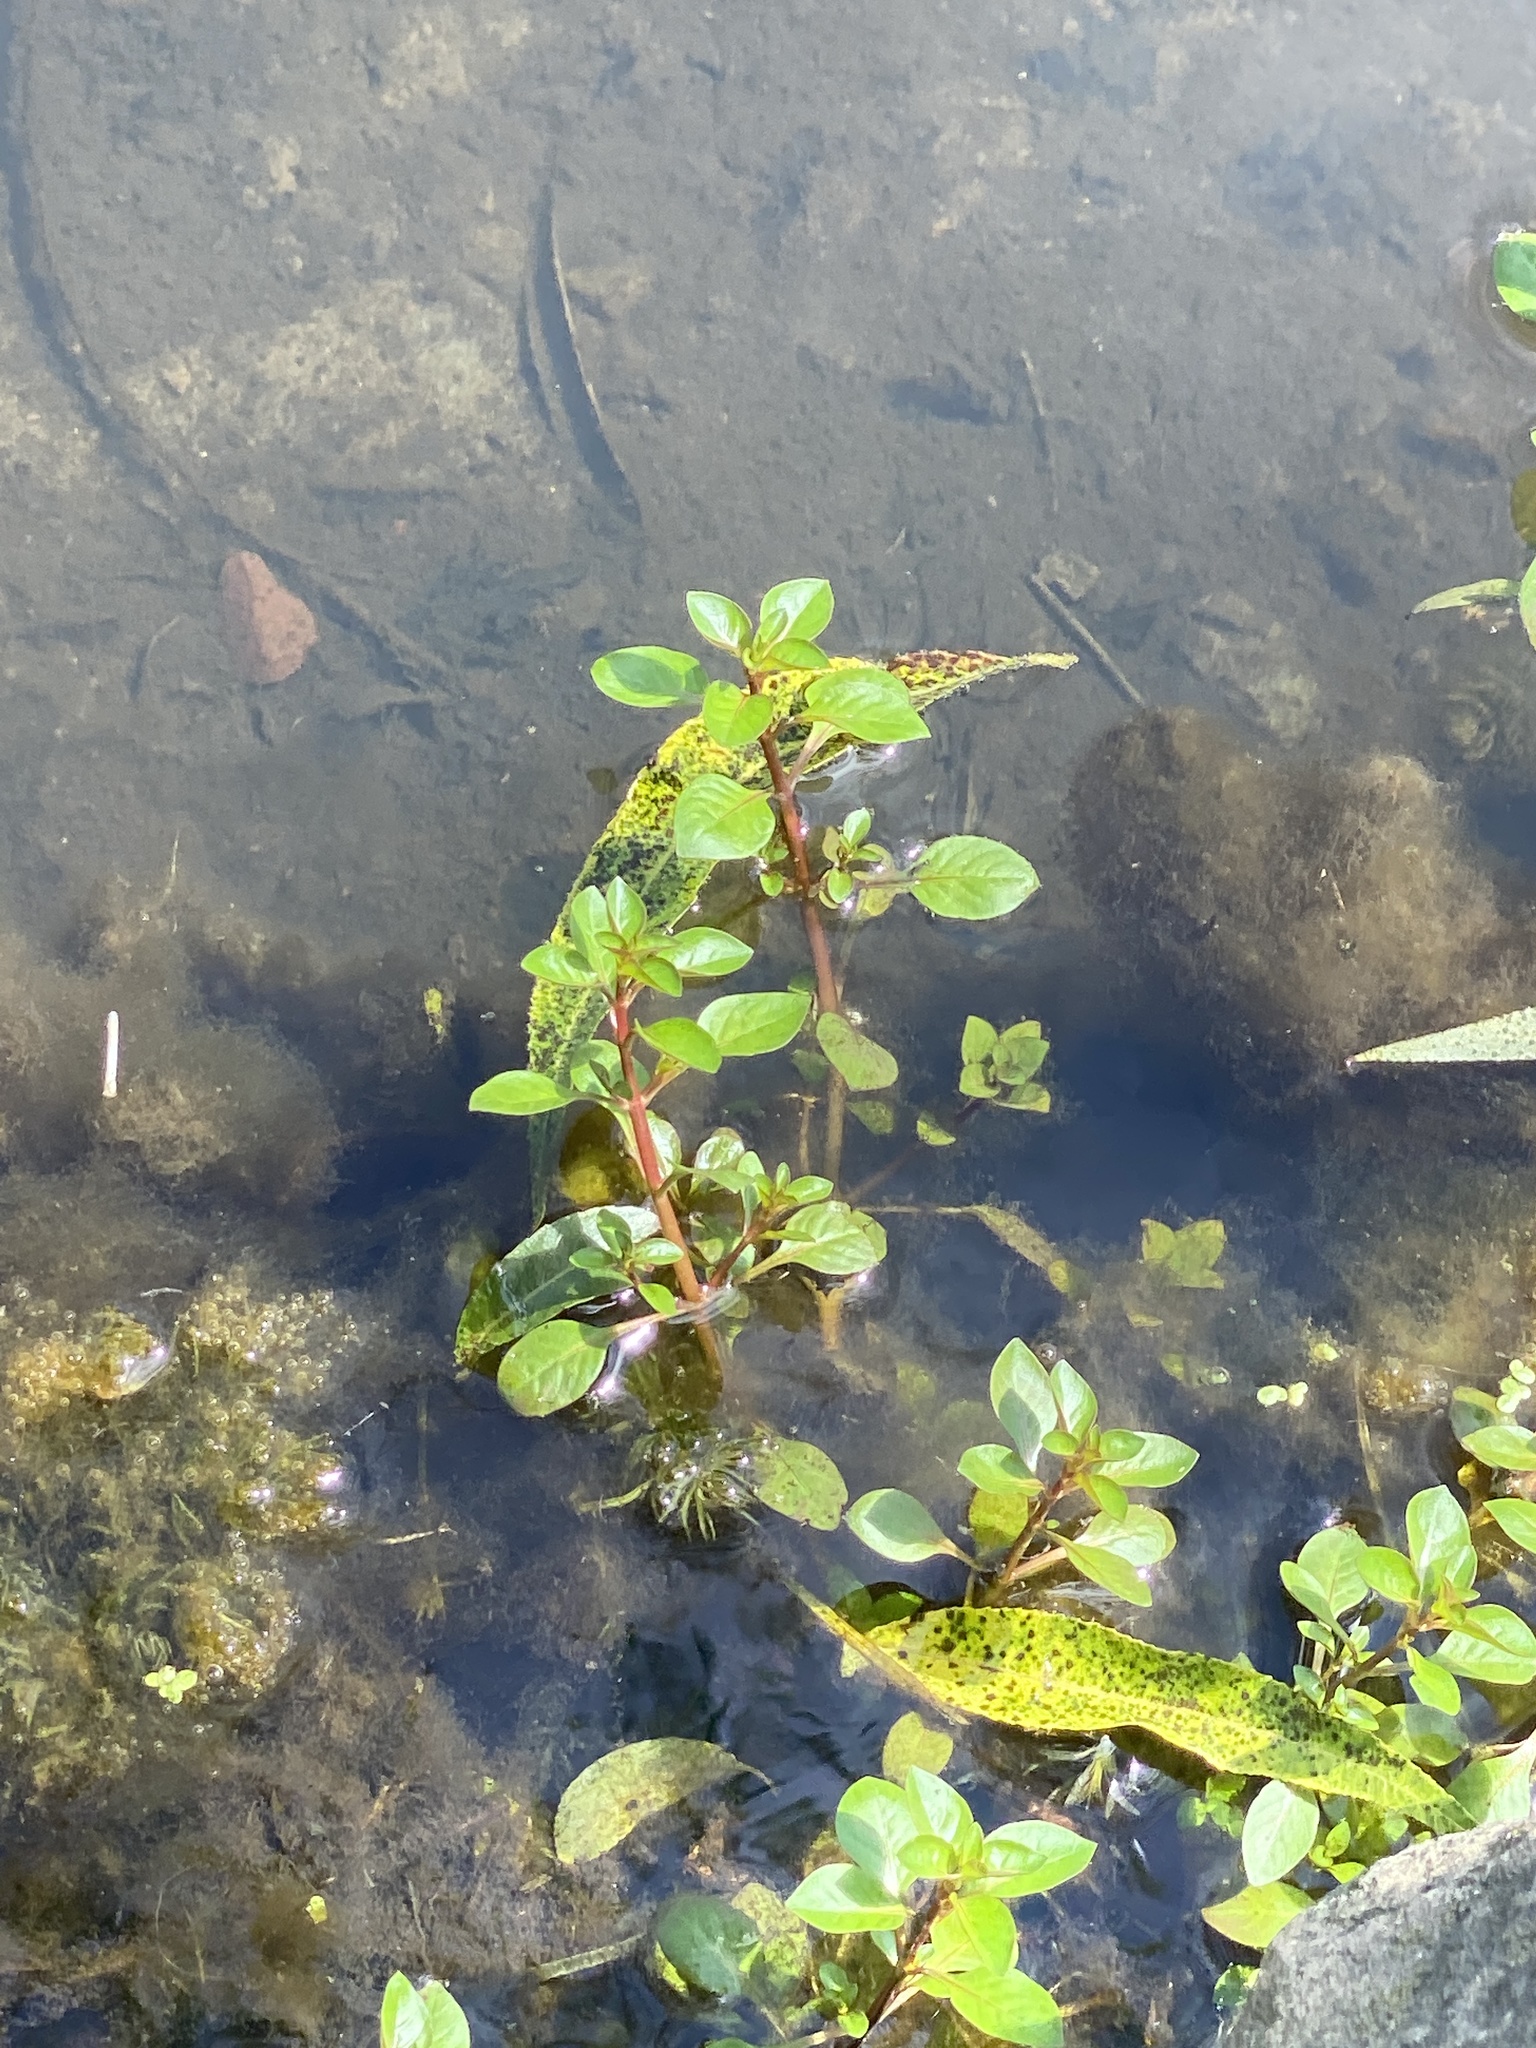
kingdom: Plantae
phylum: Tracheophyta
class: Magnoliopsida
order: Myrtales
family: Onagraceae
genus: Ludwigia
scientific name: Ludwigia palustris
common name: Hampshire-purslane
